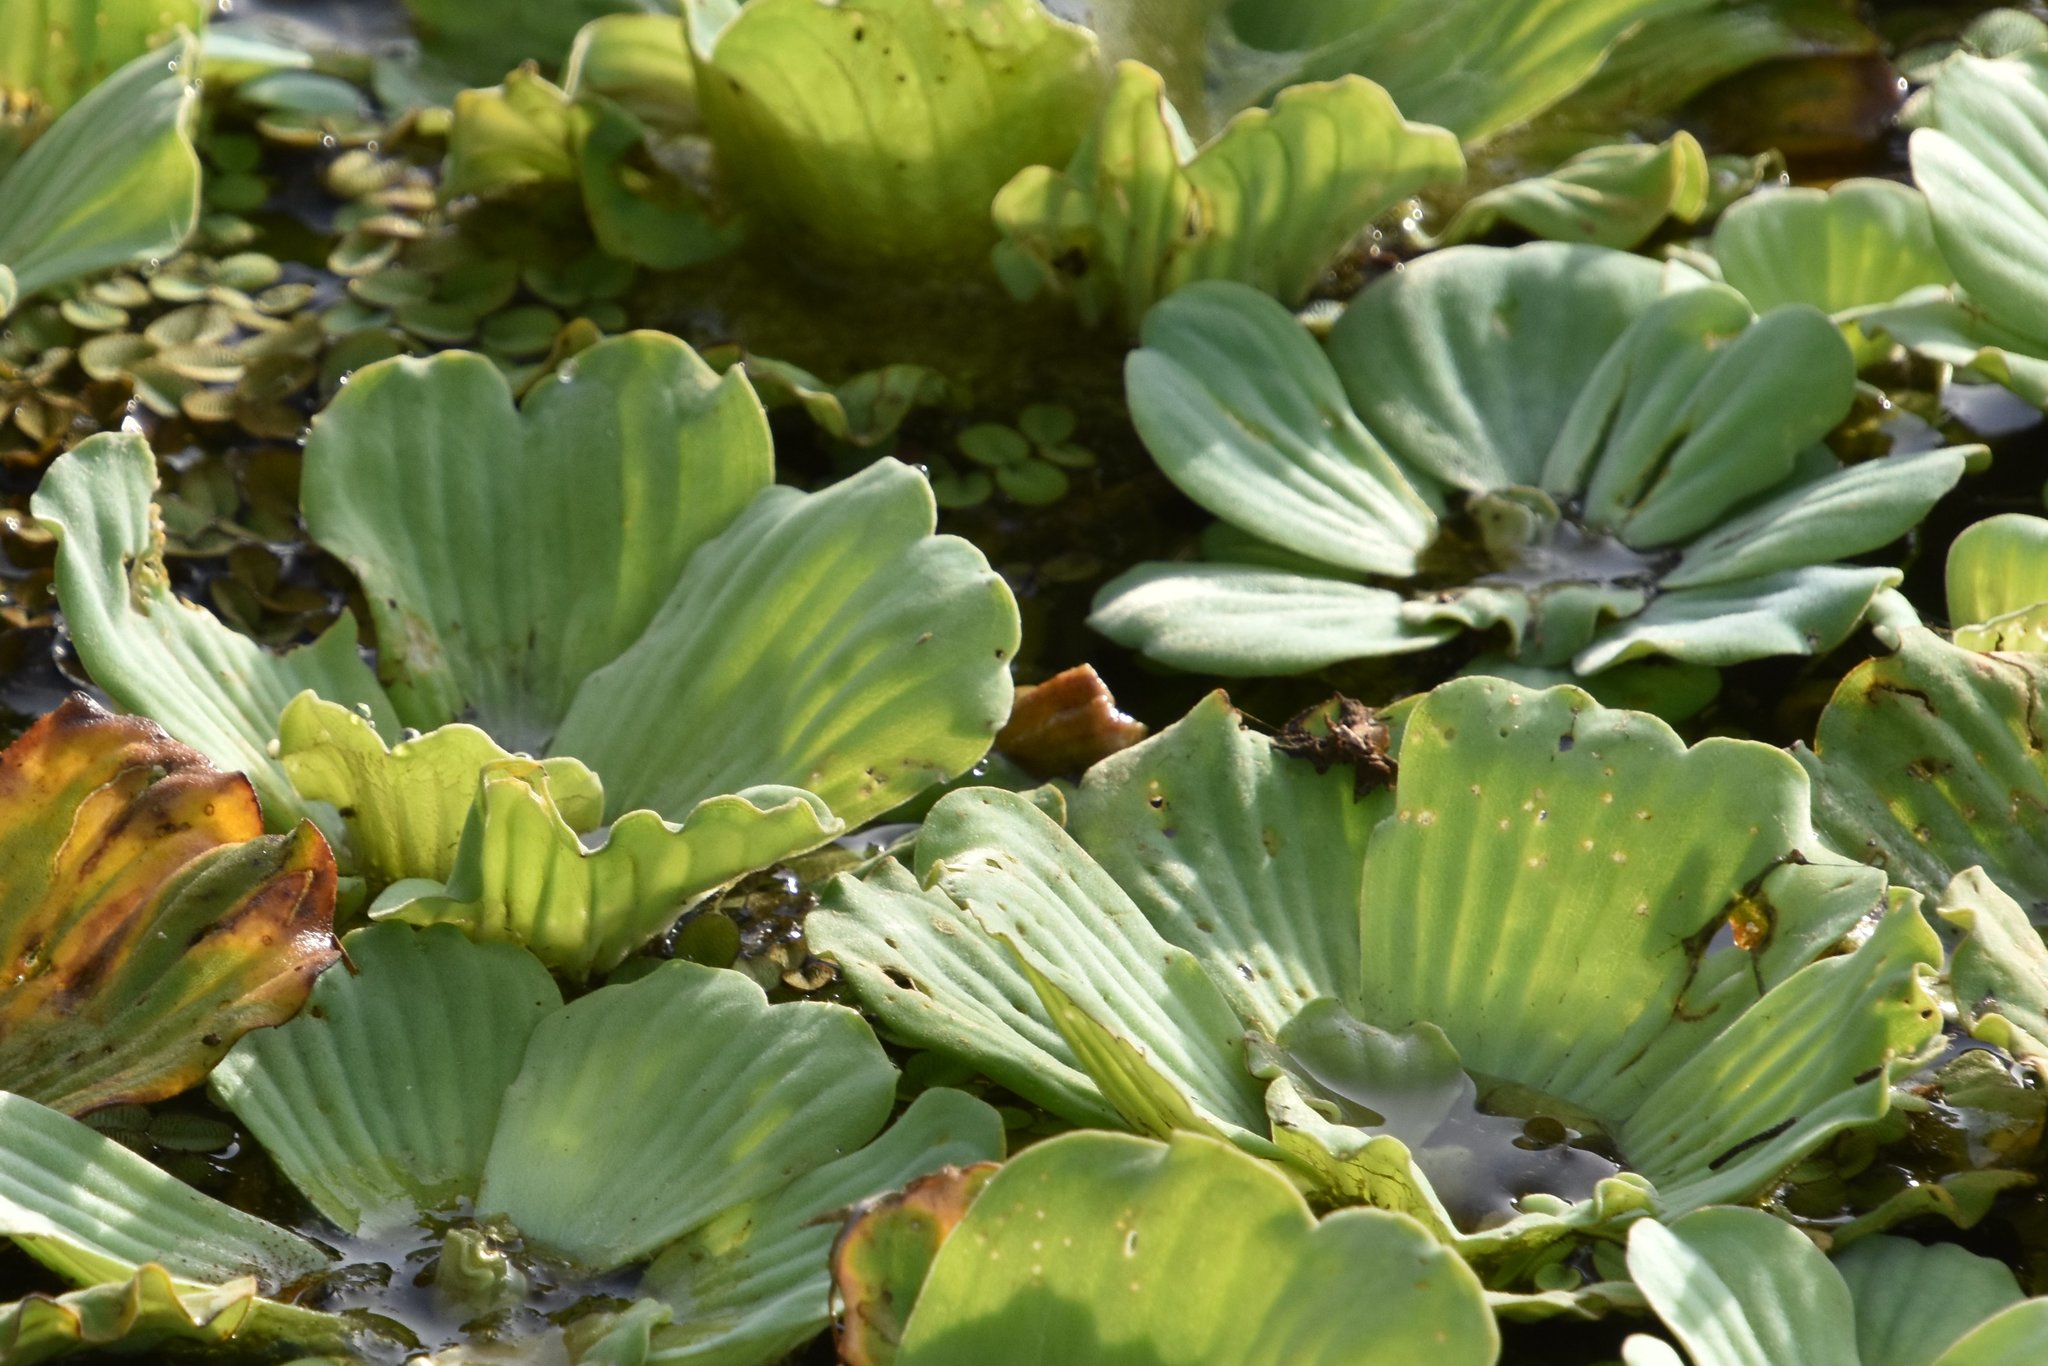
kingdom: Plantae
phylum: Tracheophyta
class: Liliopsida
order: Alismatales
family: Araceae
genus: Pistia
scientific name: Pistia stratiotes
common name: Water lettuce
